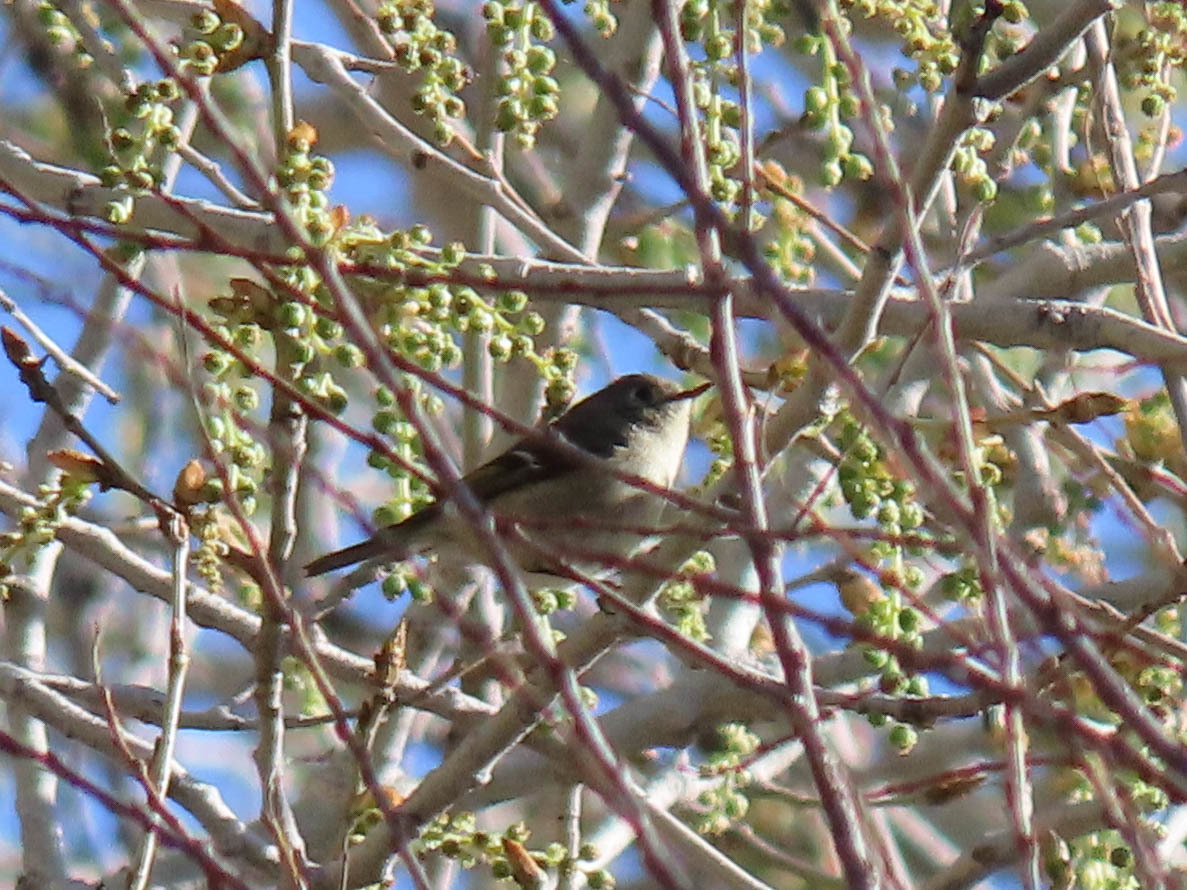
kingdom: Animalia
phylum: Chordata
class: Aves
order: Passeriformes
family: Regulidae
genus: Regulus
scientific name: Regulus calendula
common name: Ruby-crowned kinglet
